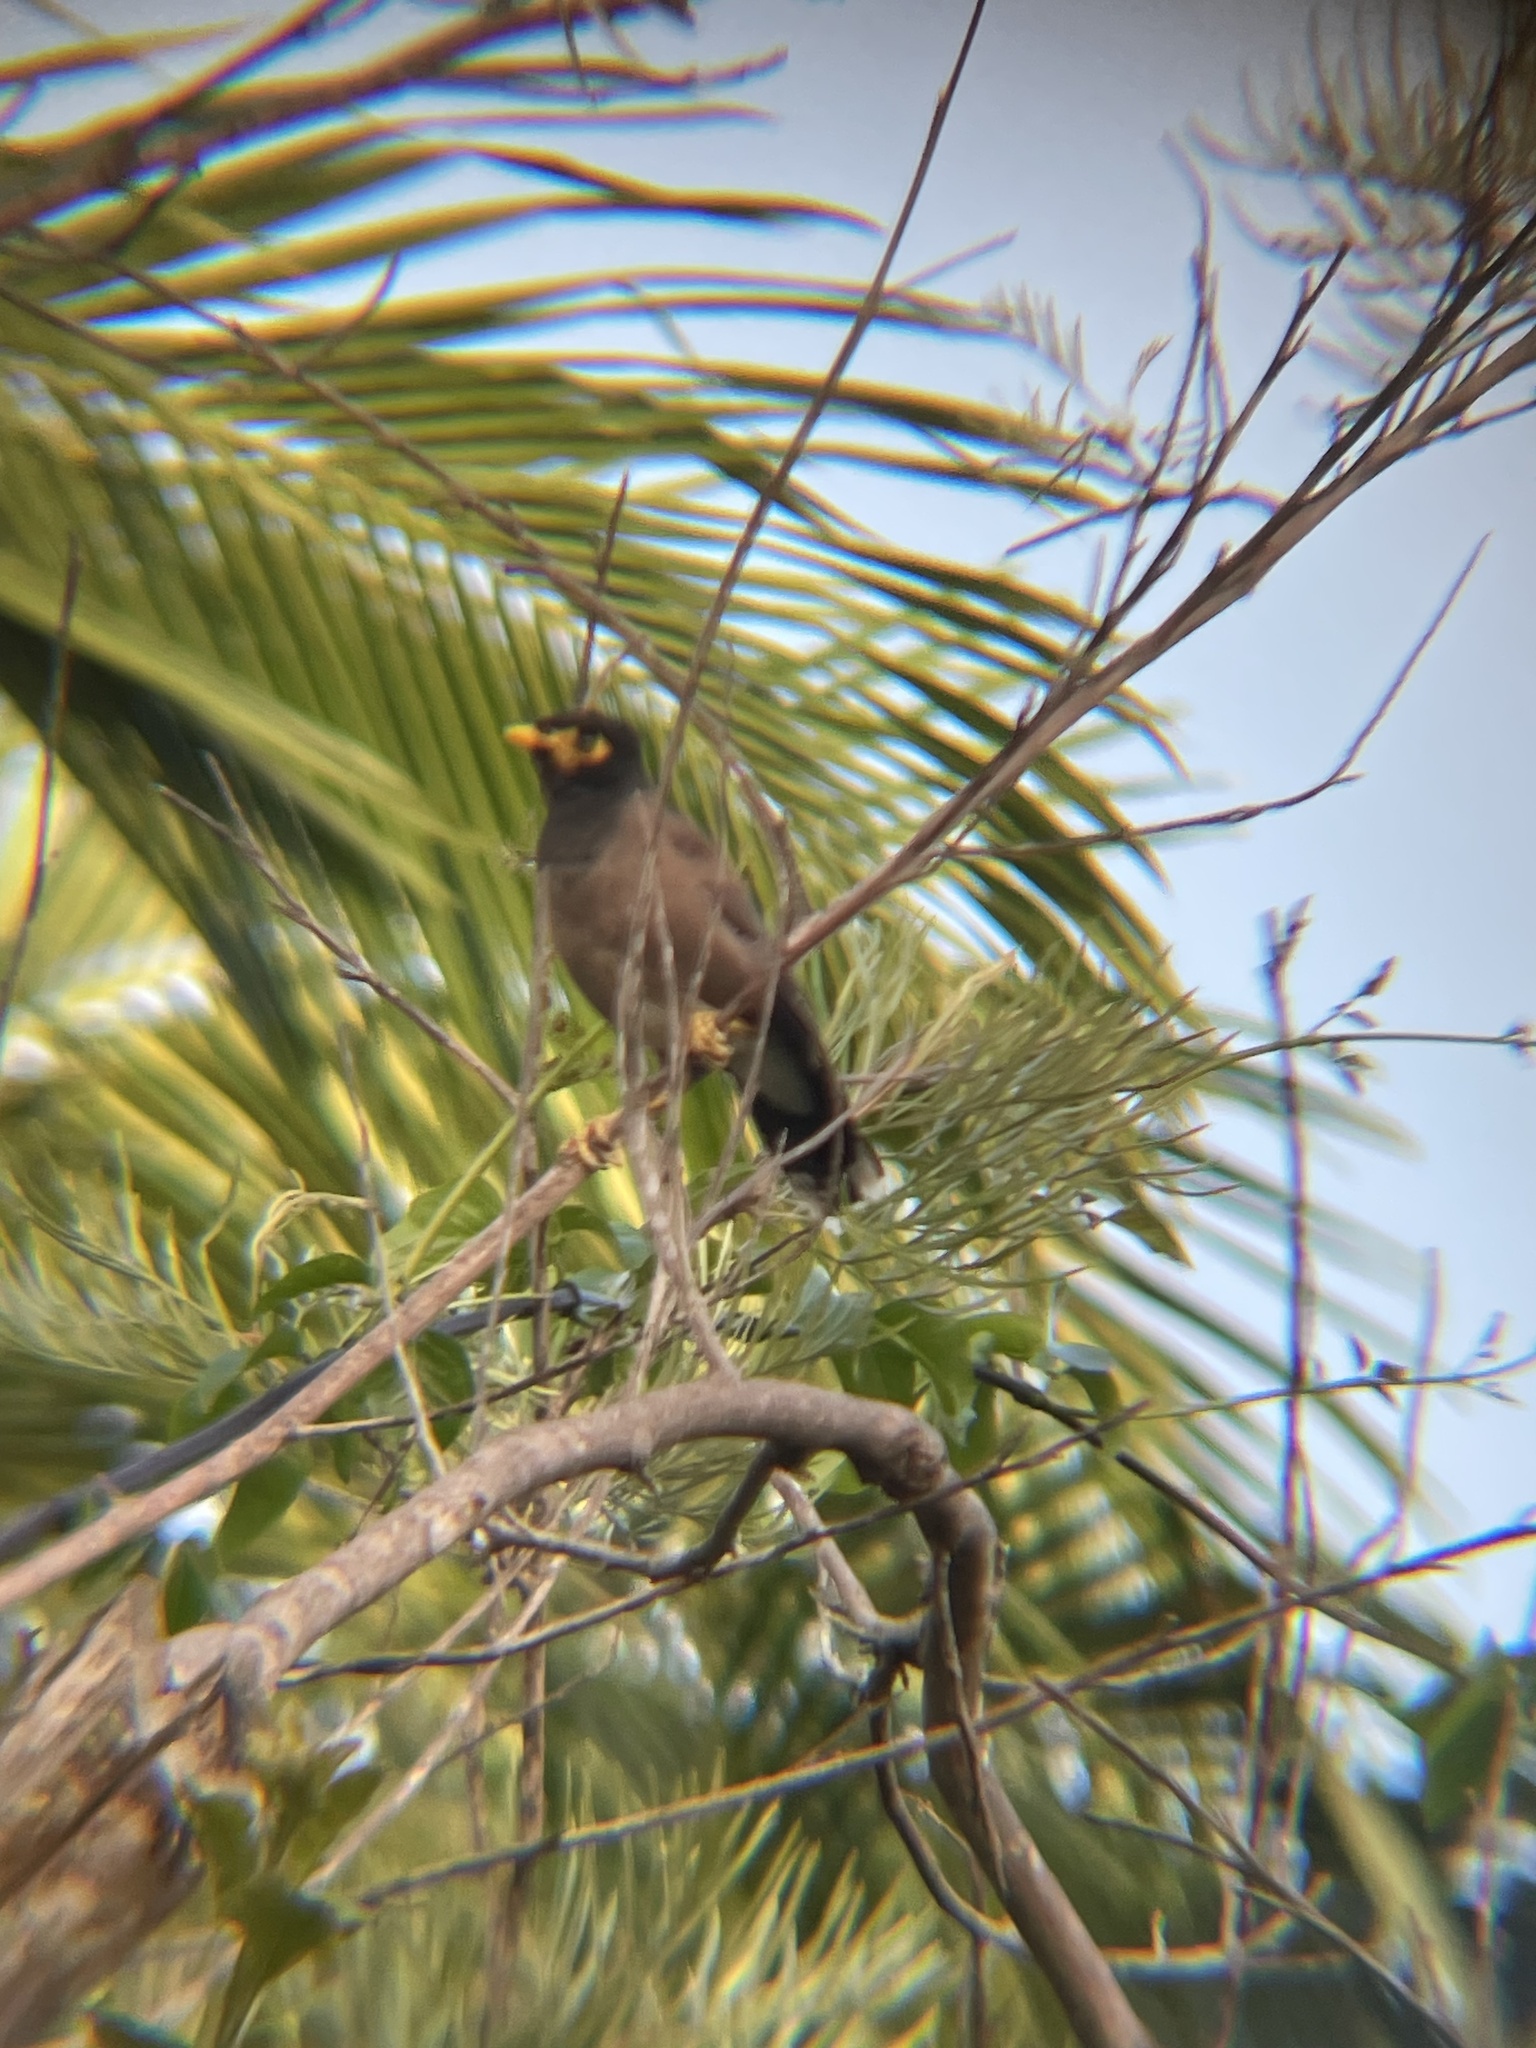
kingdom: Animalia
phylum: Chordata
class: Aves
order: Passeriformes
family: Sturnidae
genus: Acridotheres
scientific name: Acridotheres tristis
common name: Common myna
